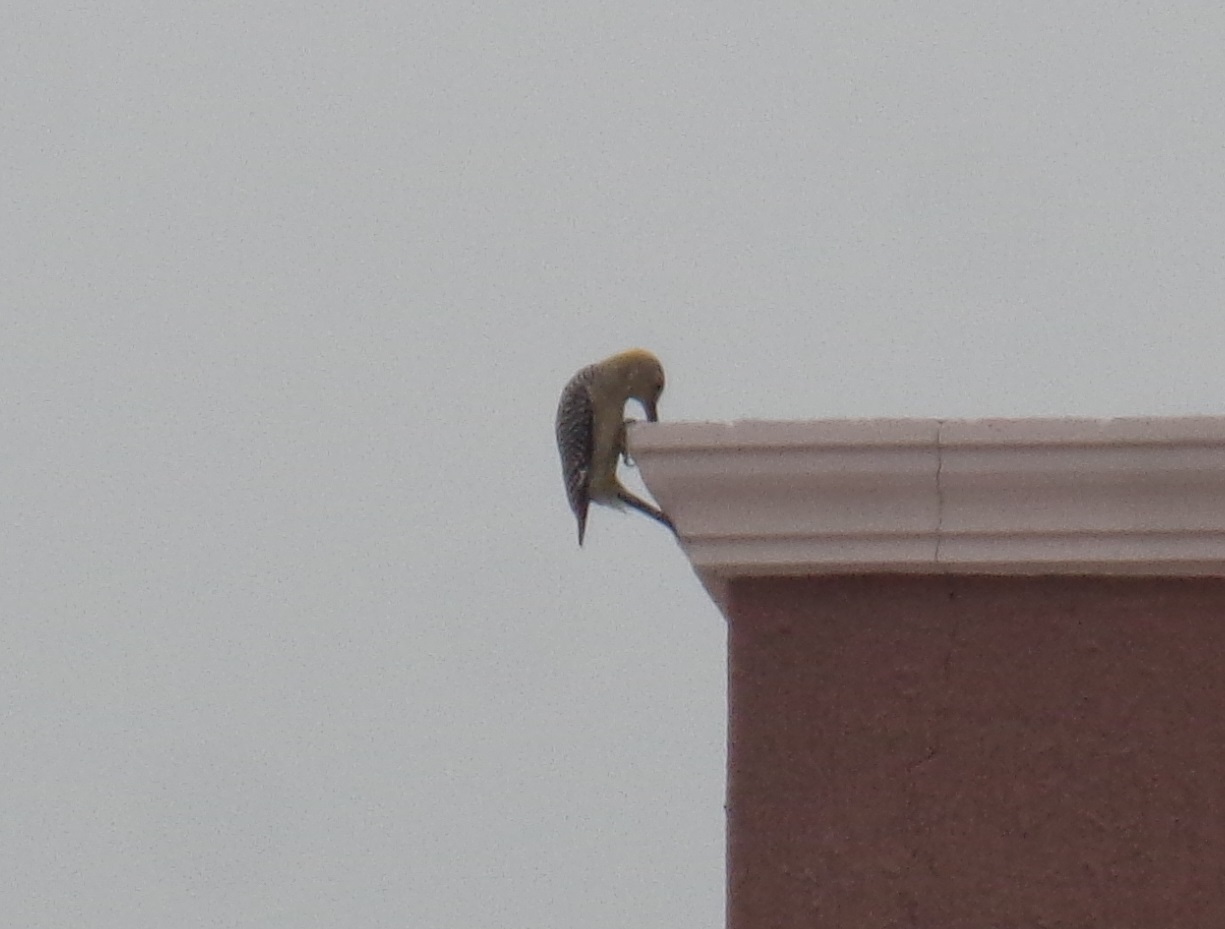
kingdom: Animalia
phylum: Chordata
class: Aves
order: Piciformes
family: Picidae
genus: Melanerpes
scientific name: Melanerpes aurifrons
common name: Golden-fronted woodpecker
